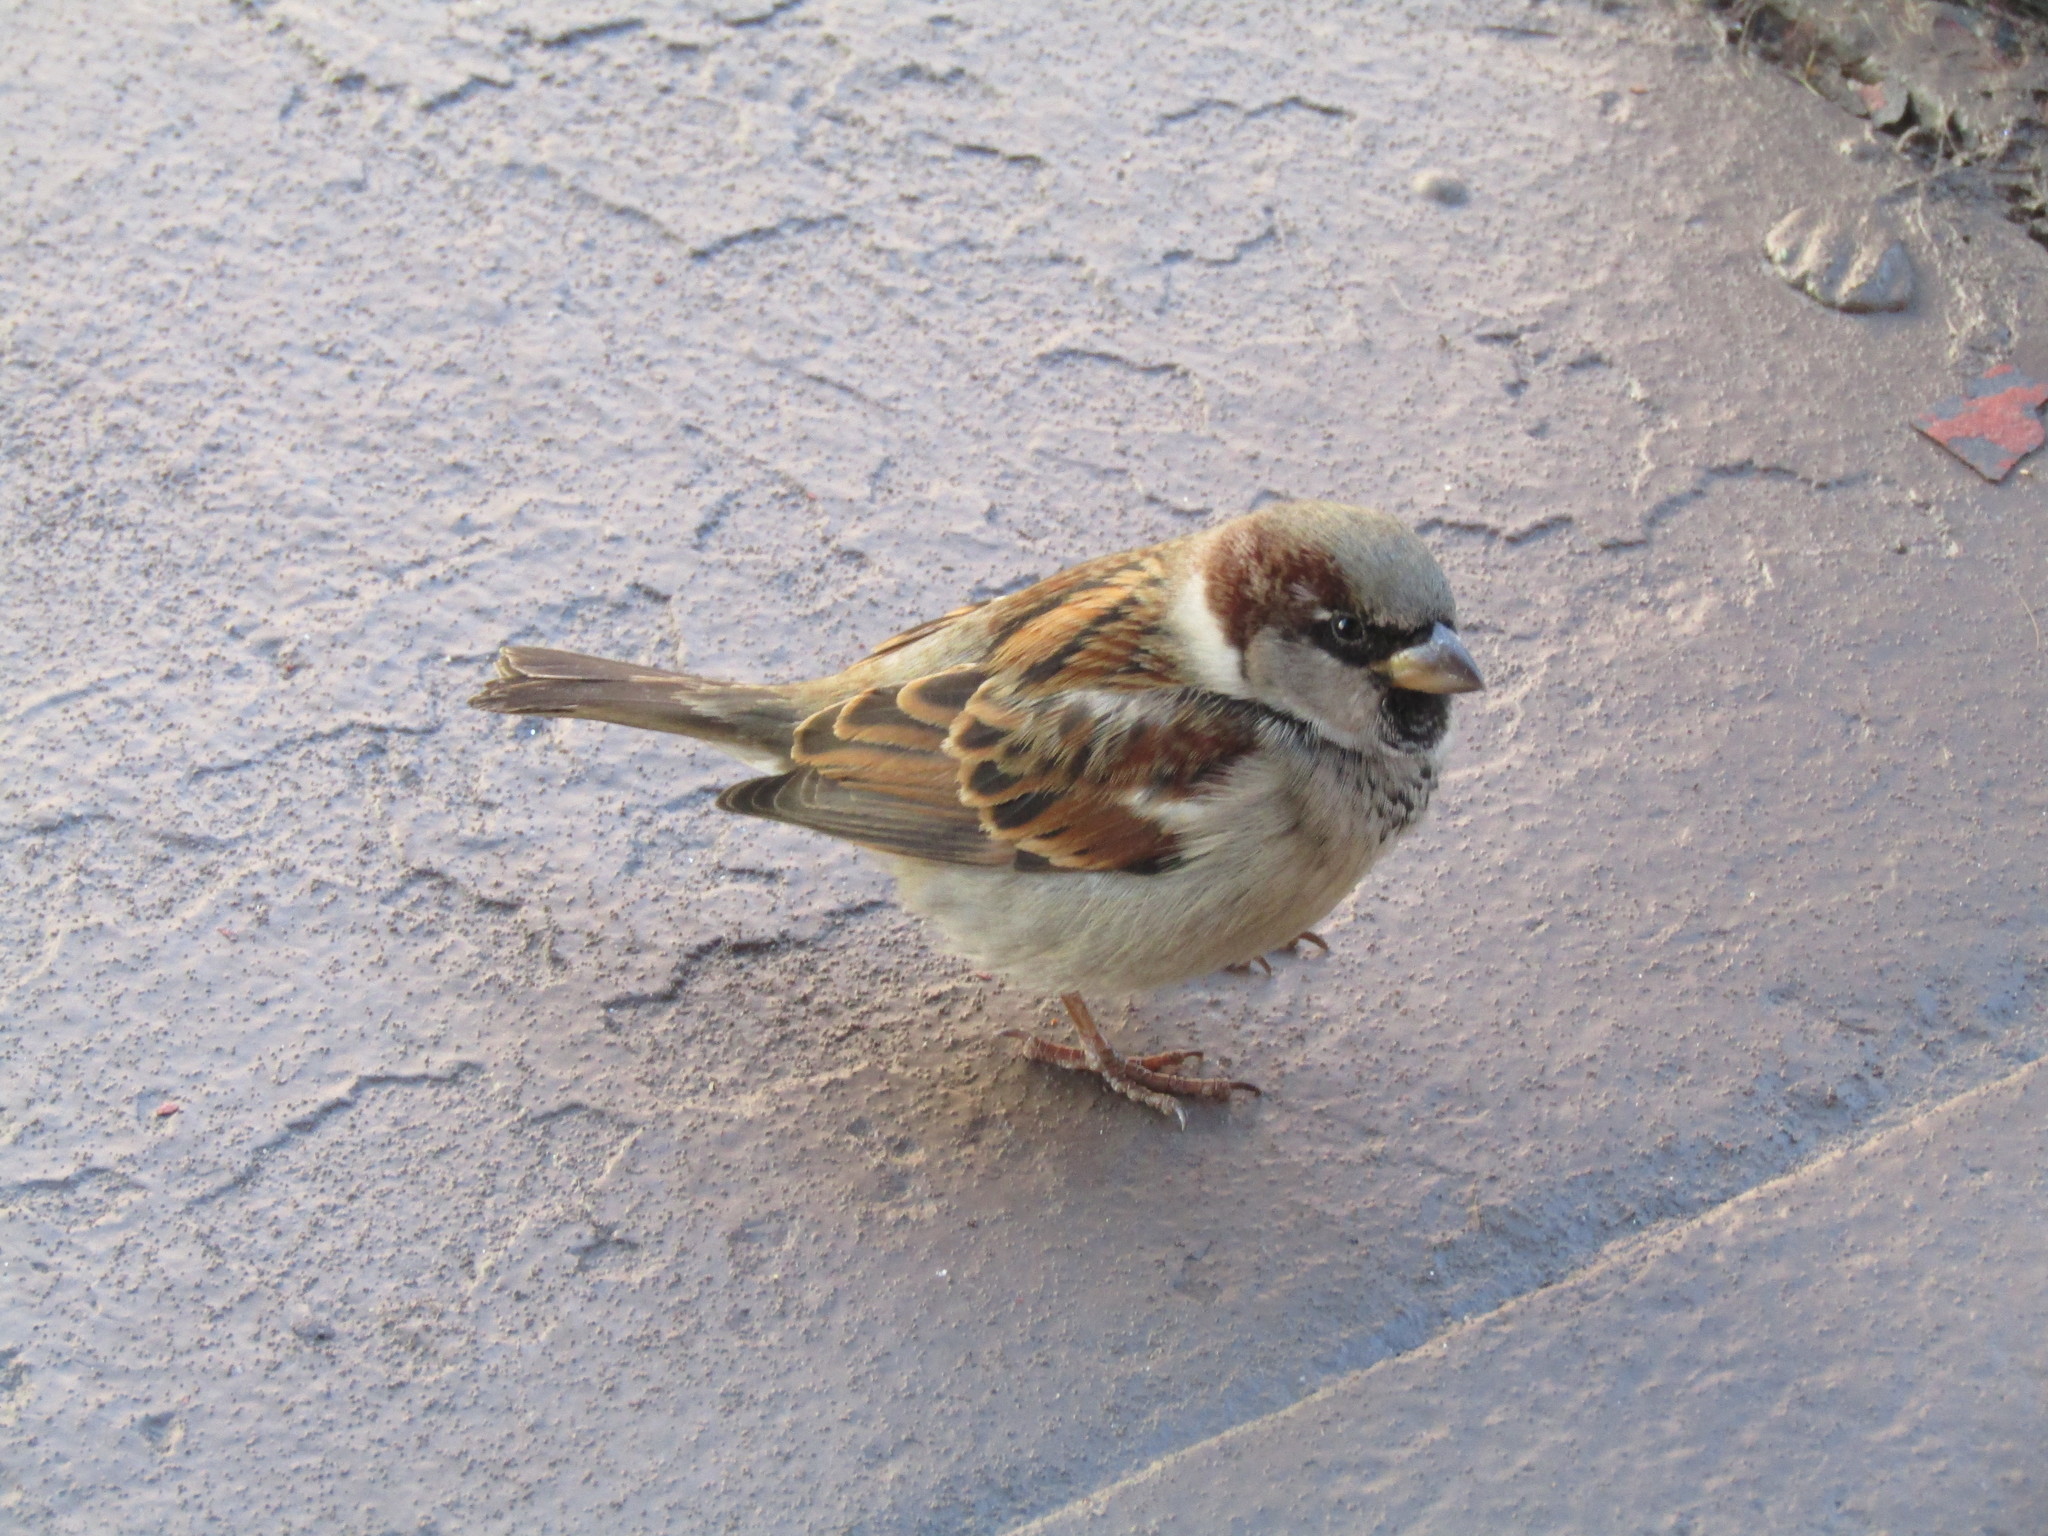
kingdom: Animalia
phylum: Chordata
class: Aves
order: Passeriformes
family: Passeridae
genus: Passer
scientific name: Passer domesticus
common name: House sparrow
